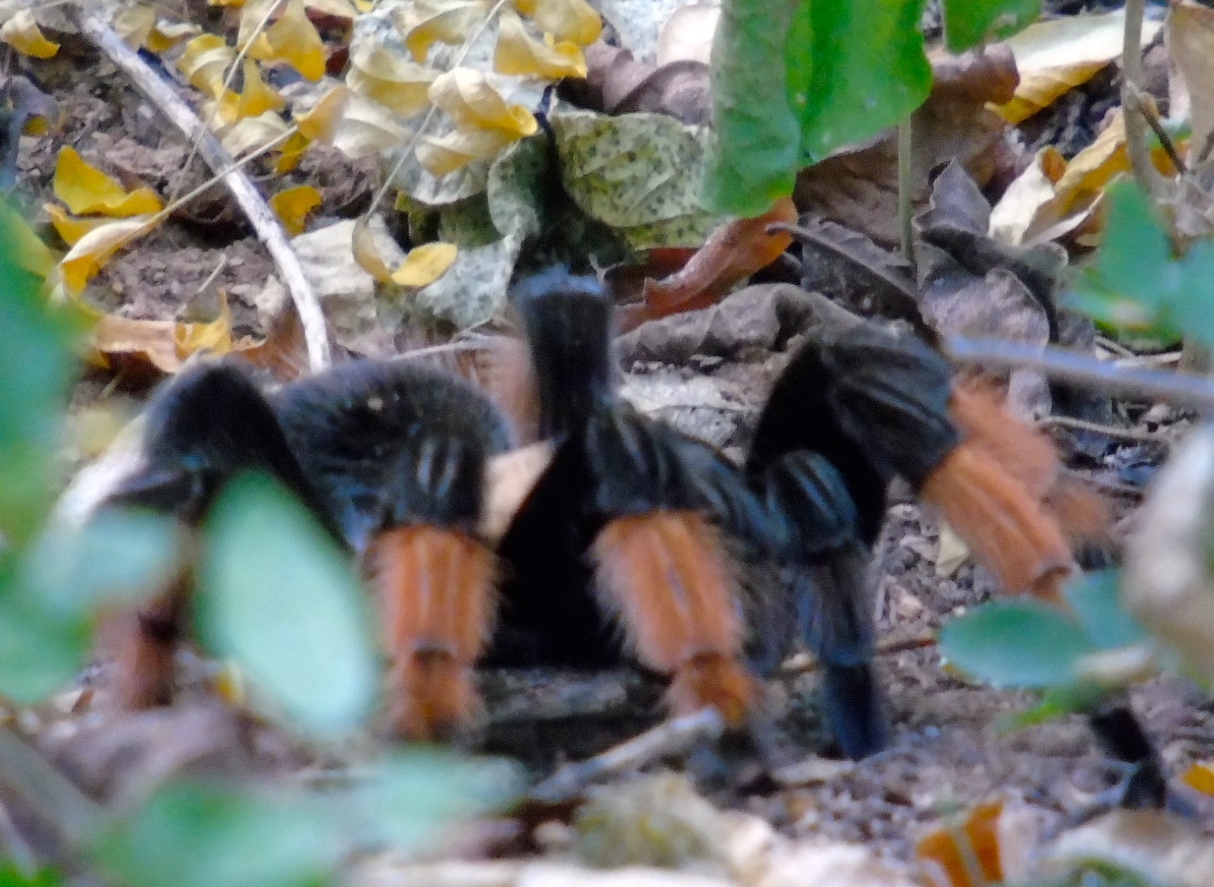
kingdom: Animalia
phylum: Arthropoda
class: Arachnida
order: Araneae
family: Theraphosidae
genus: Brachypelma
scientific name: Brachypelma emilia
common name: Mexican redleg
